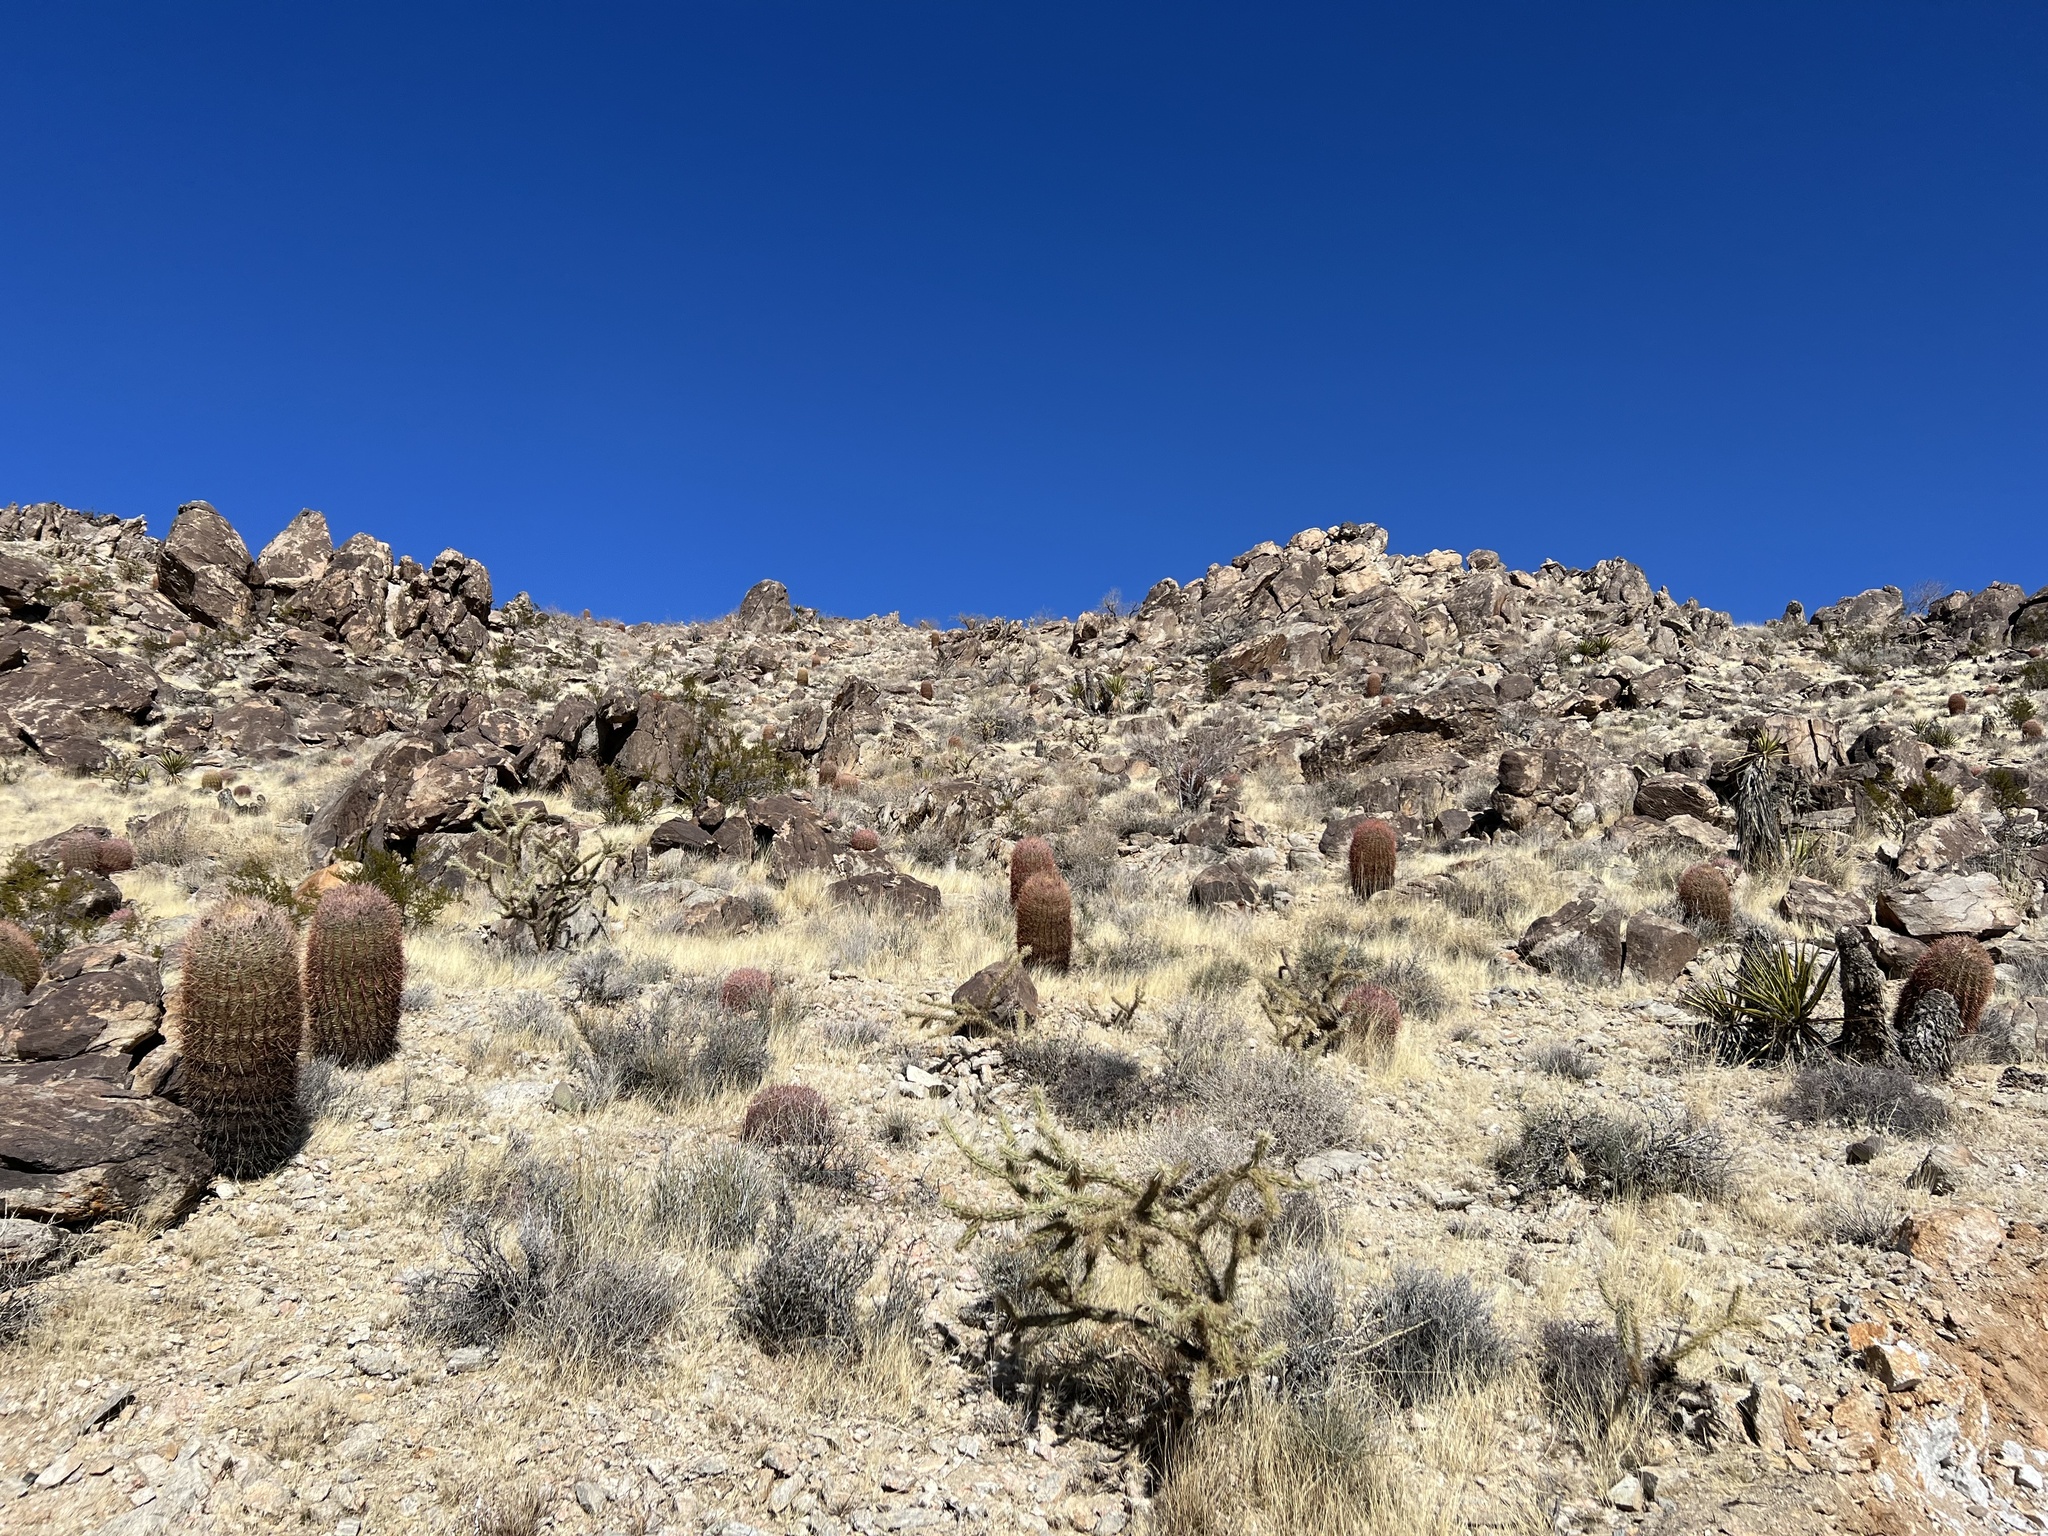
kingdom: Plantae
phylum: Tracheophyta
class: Magnoliopsida
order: Caryophyllales
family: Cactaceae
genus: Ferocactus
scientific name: Ferocactus cylindraceus
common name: California barrel cactus
